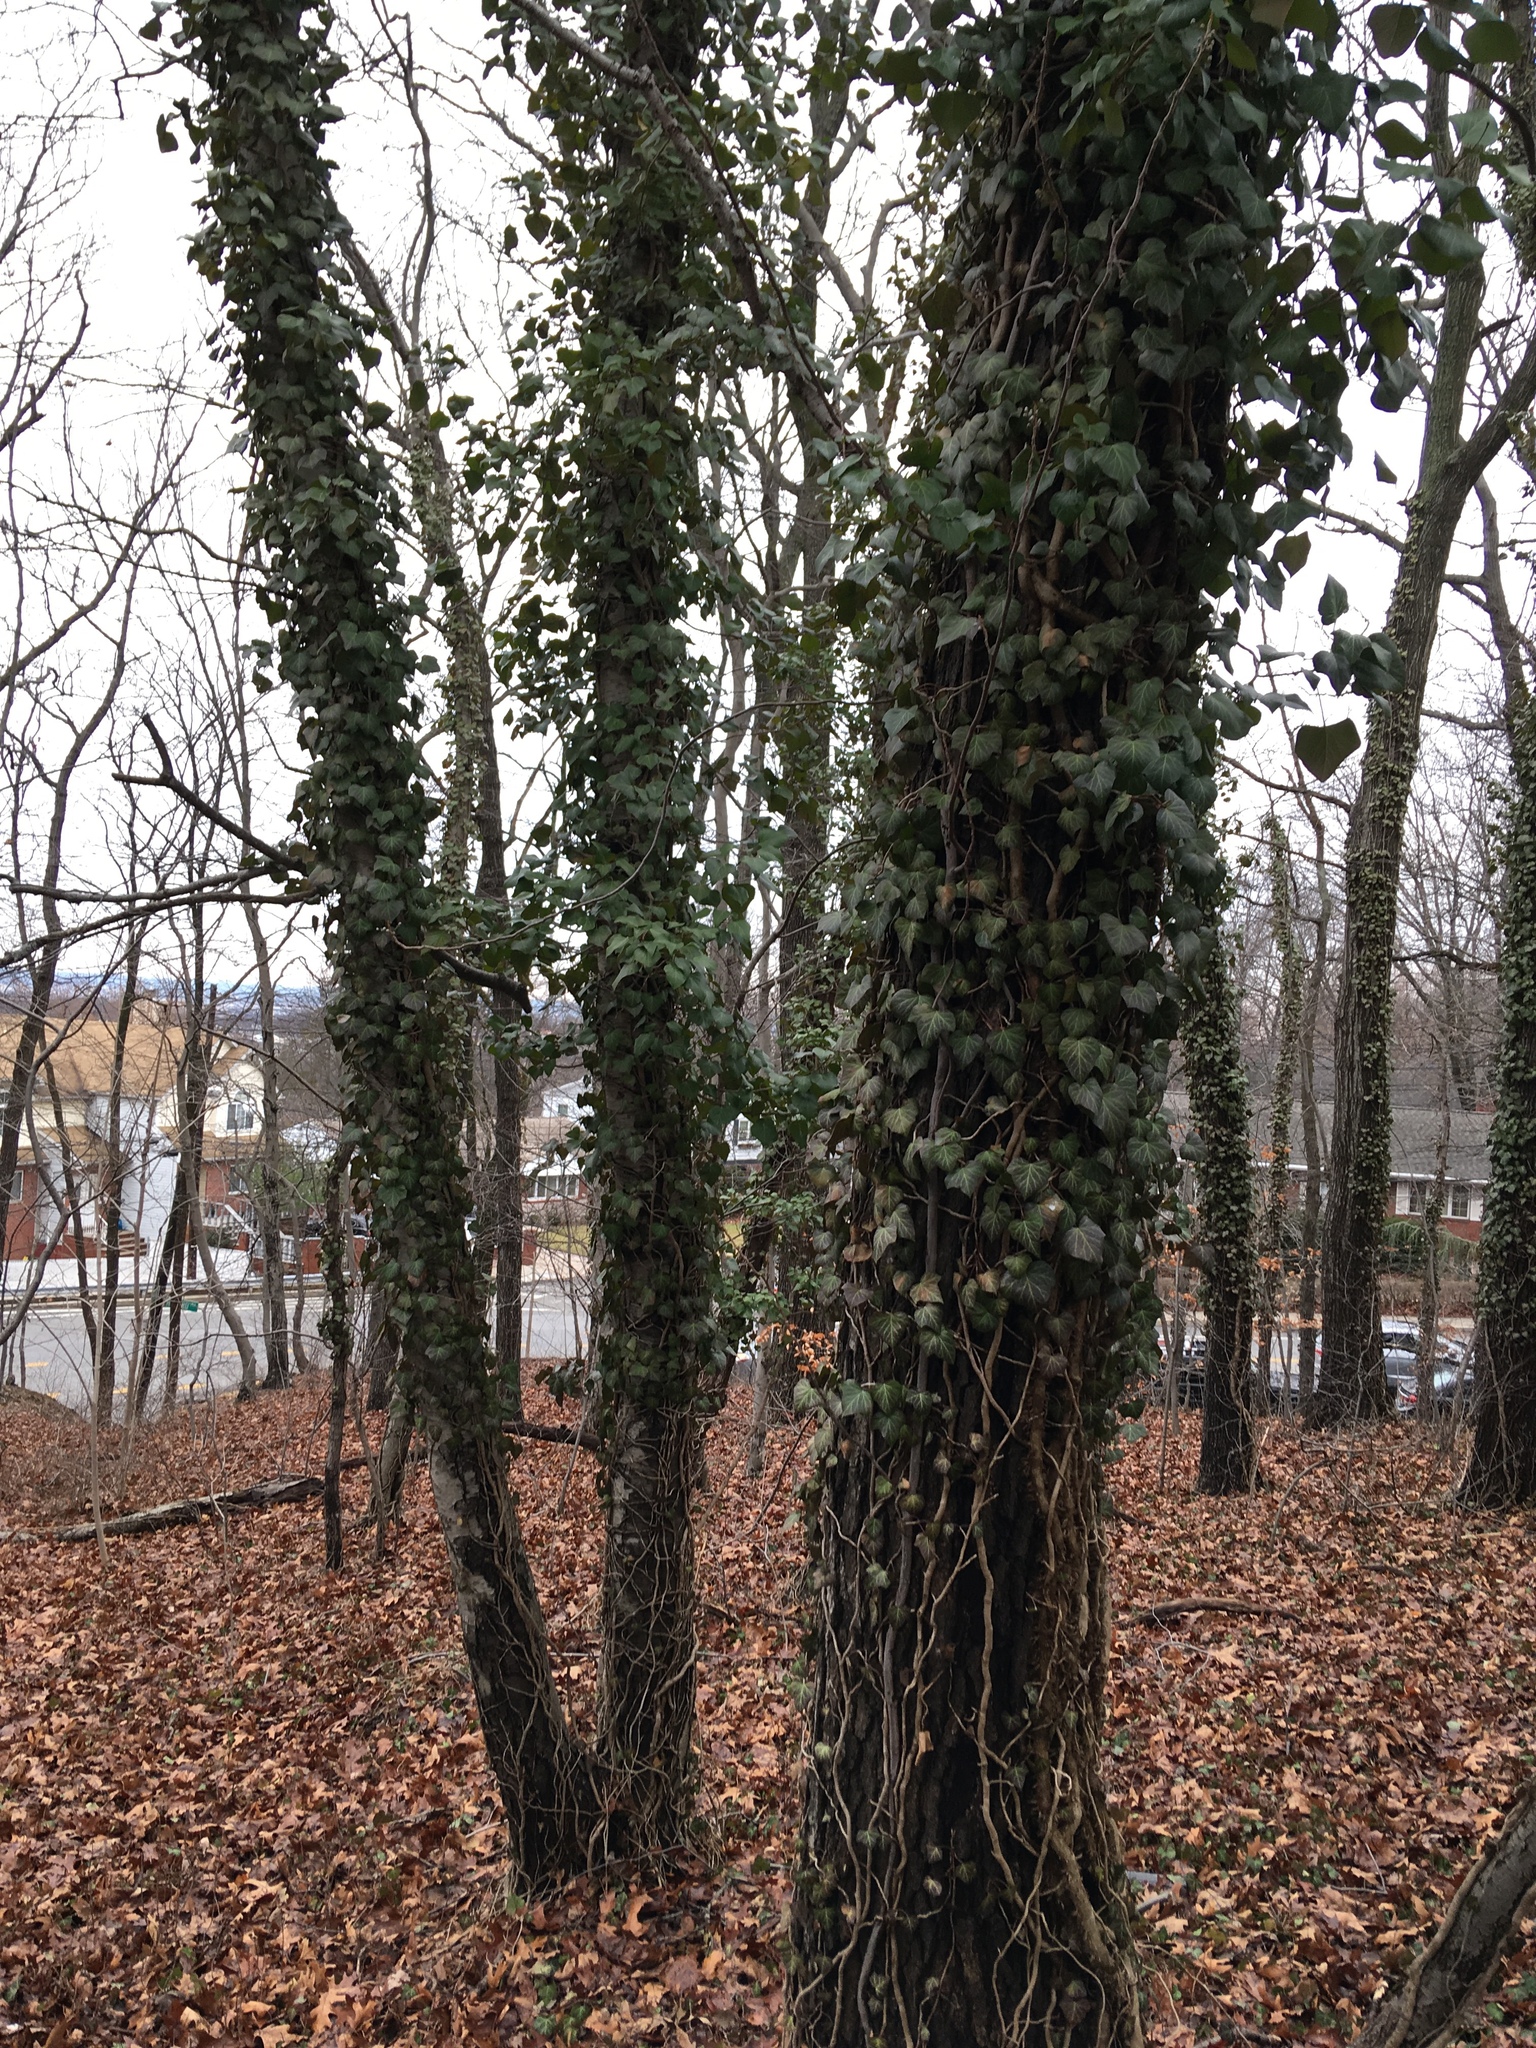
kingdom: Plantae
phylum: Tracheophyta
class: Magnoliopsida
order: Apiales
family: Araliaceae
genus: Hedera
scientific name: Hedera helix
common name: Ivy
